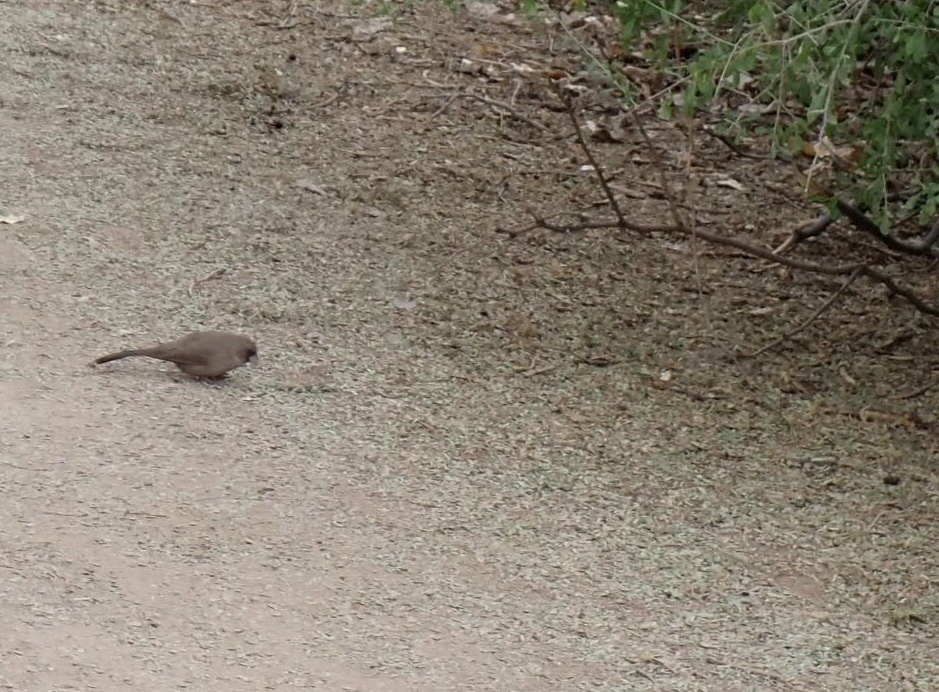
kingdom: Animalia
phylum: Chordata
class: Aves
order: Passeriformes
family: Passerellidae
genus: Melozone
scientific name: Melozone aberti
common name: Abert's towhee
